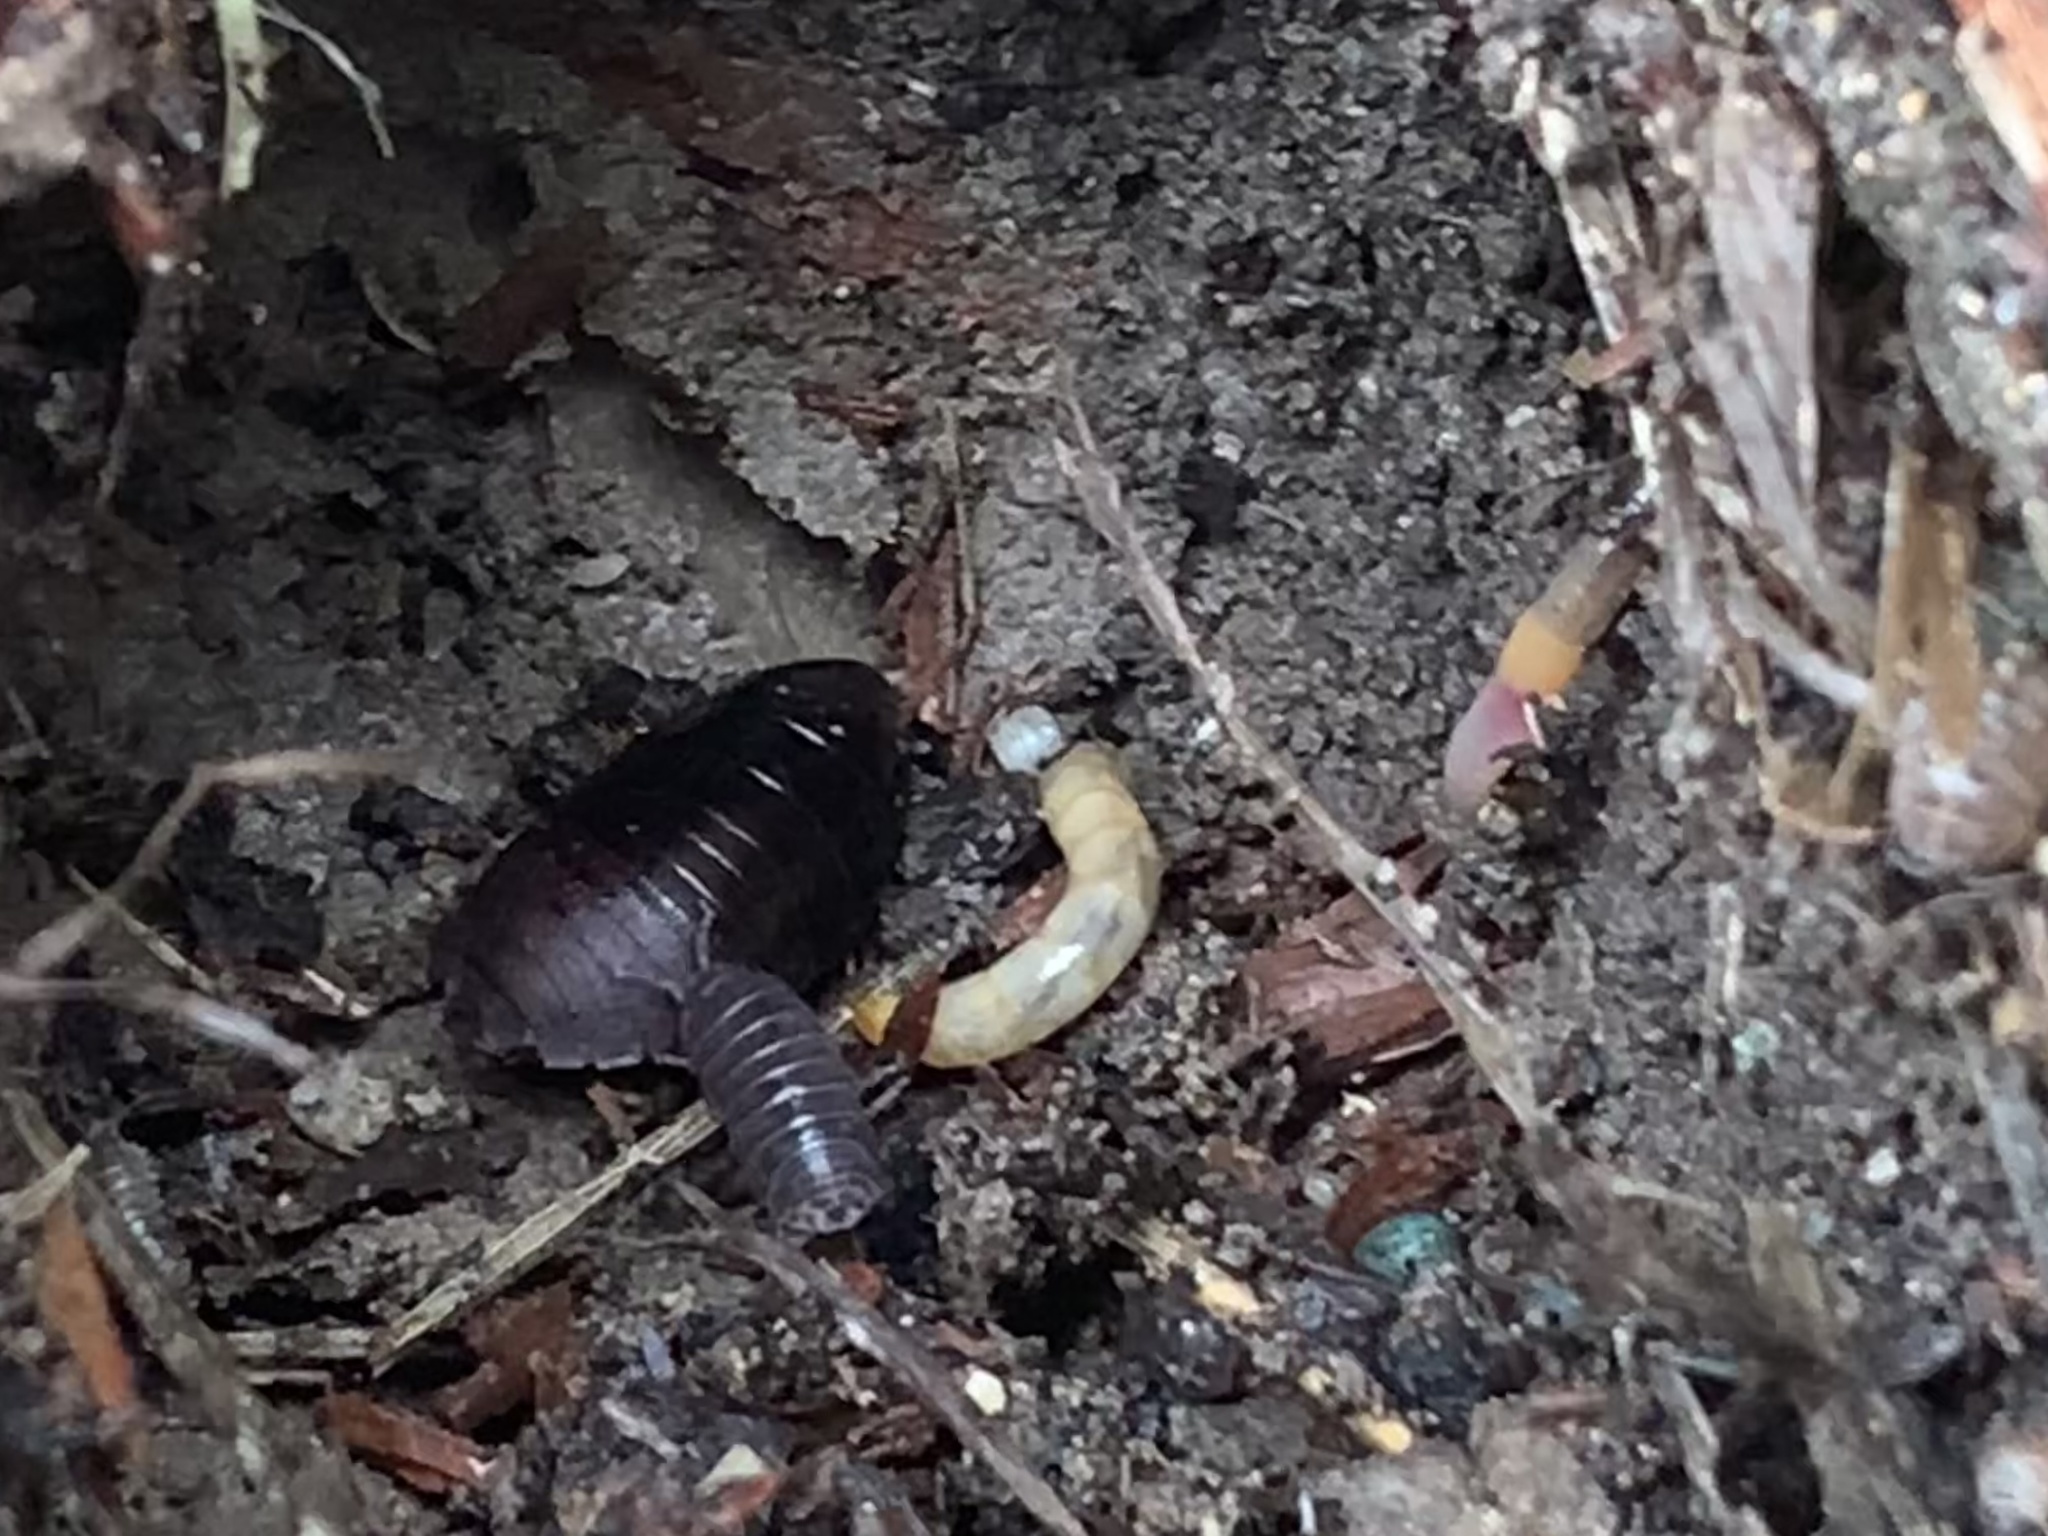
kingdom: Animalia
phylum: Arthropoda
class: Insecta
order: Blattodea
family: Blaberidae
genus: Pycnoscelus
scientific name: Pycnoscelus surinamensis
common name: Surinam cockroach
